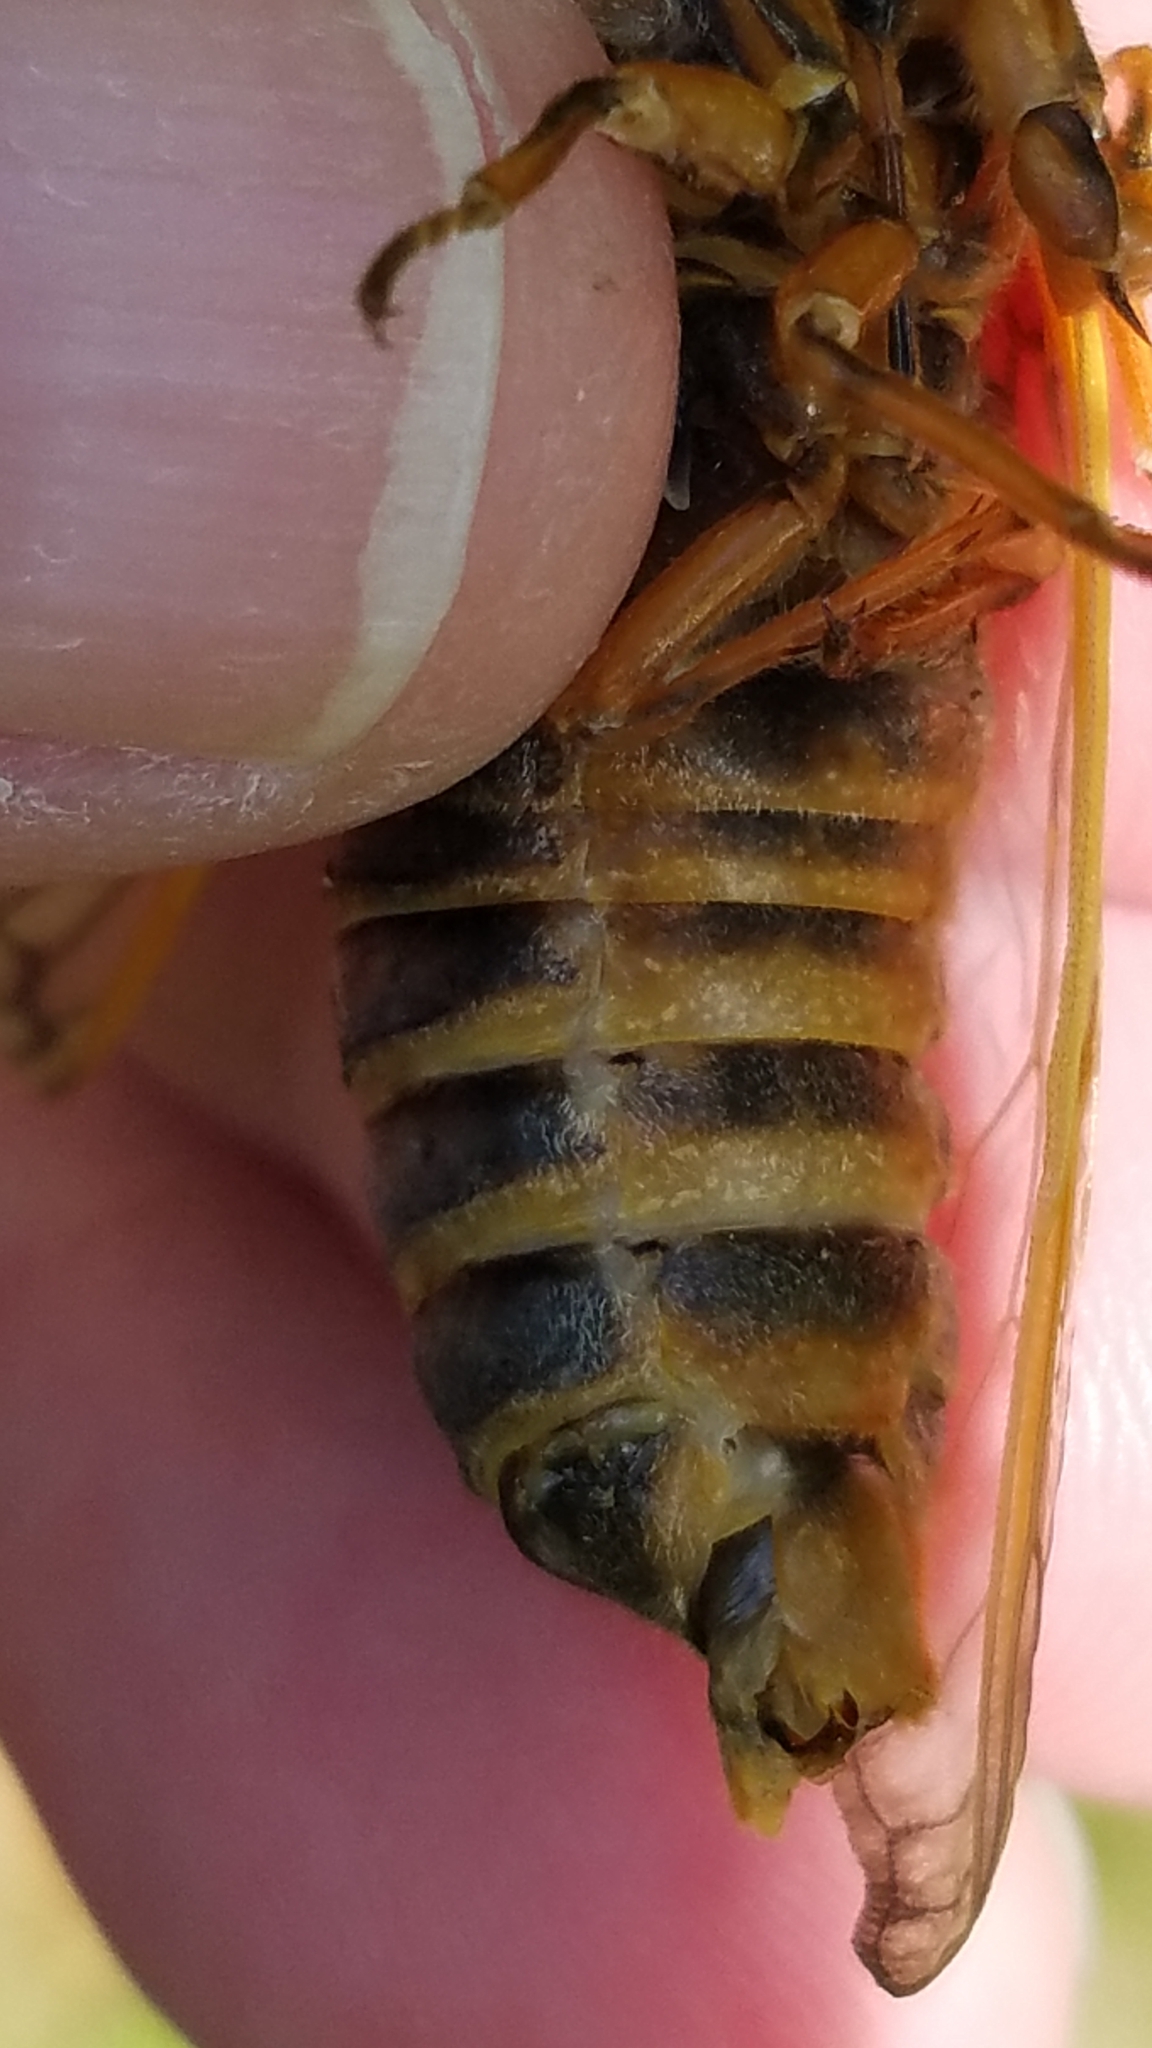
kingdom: Animalia
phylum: Arthropoda
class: Insecta
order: Hemiptera
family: Cicadidae
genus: Magicicada
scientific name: Magicicada septendecim
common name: Periodical cicada
